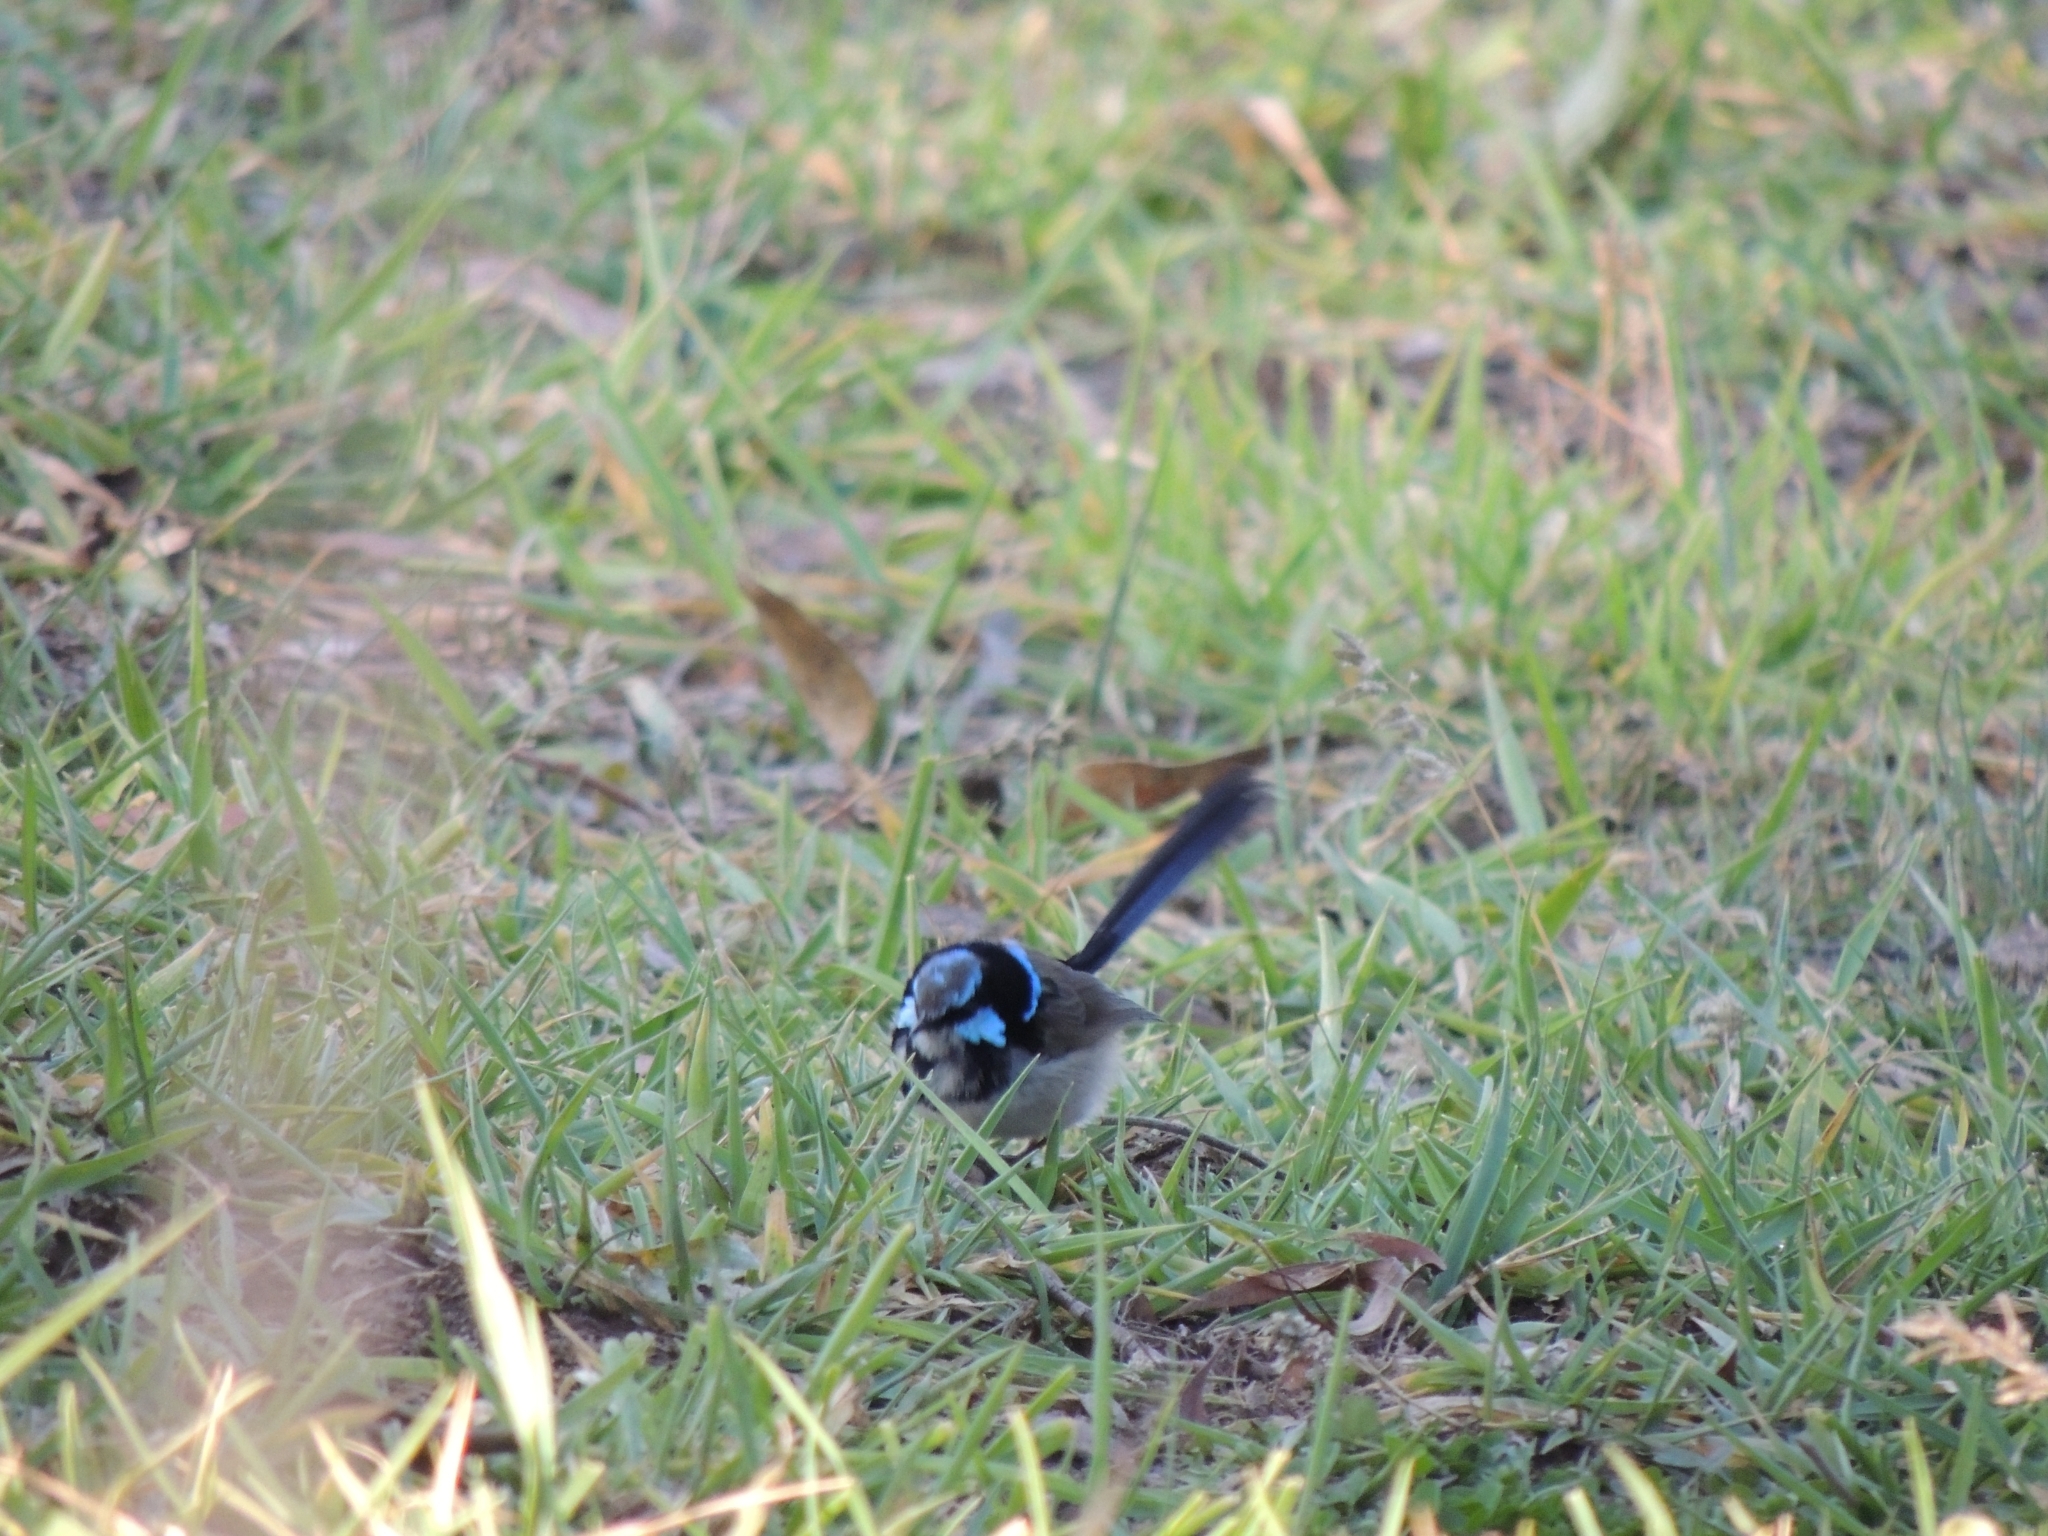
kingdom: Animalia
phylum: Chordata
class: Aves
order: Passeriformes
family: Maluridae
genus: Malurus
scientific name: Malurus cyaneus
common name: Superb fairywren
